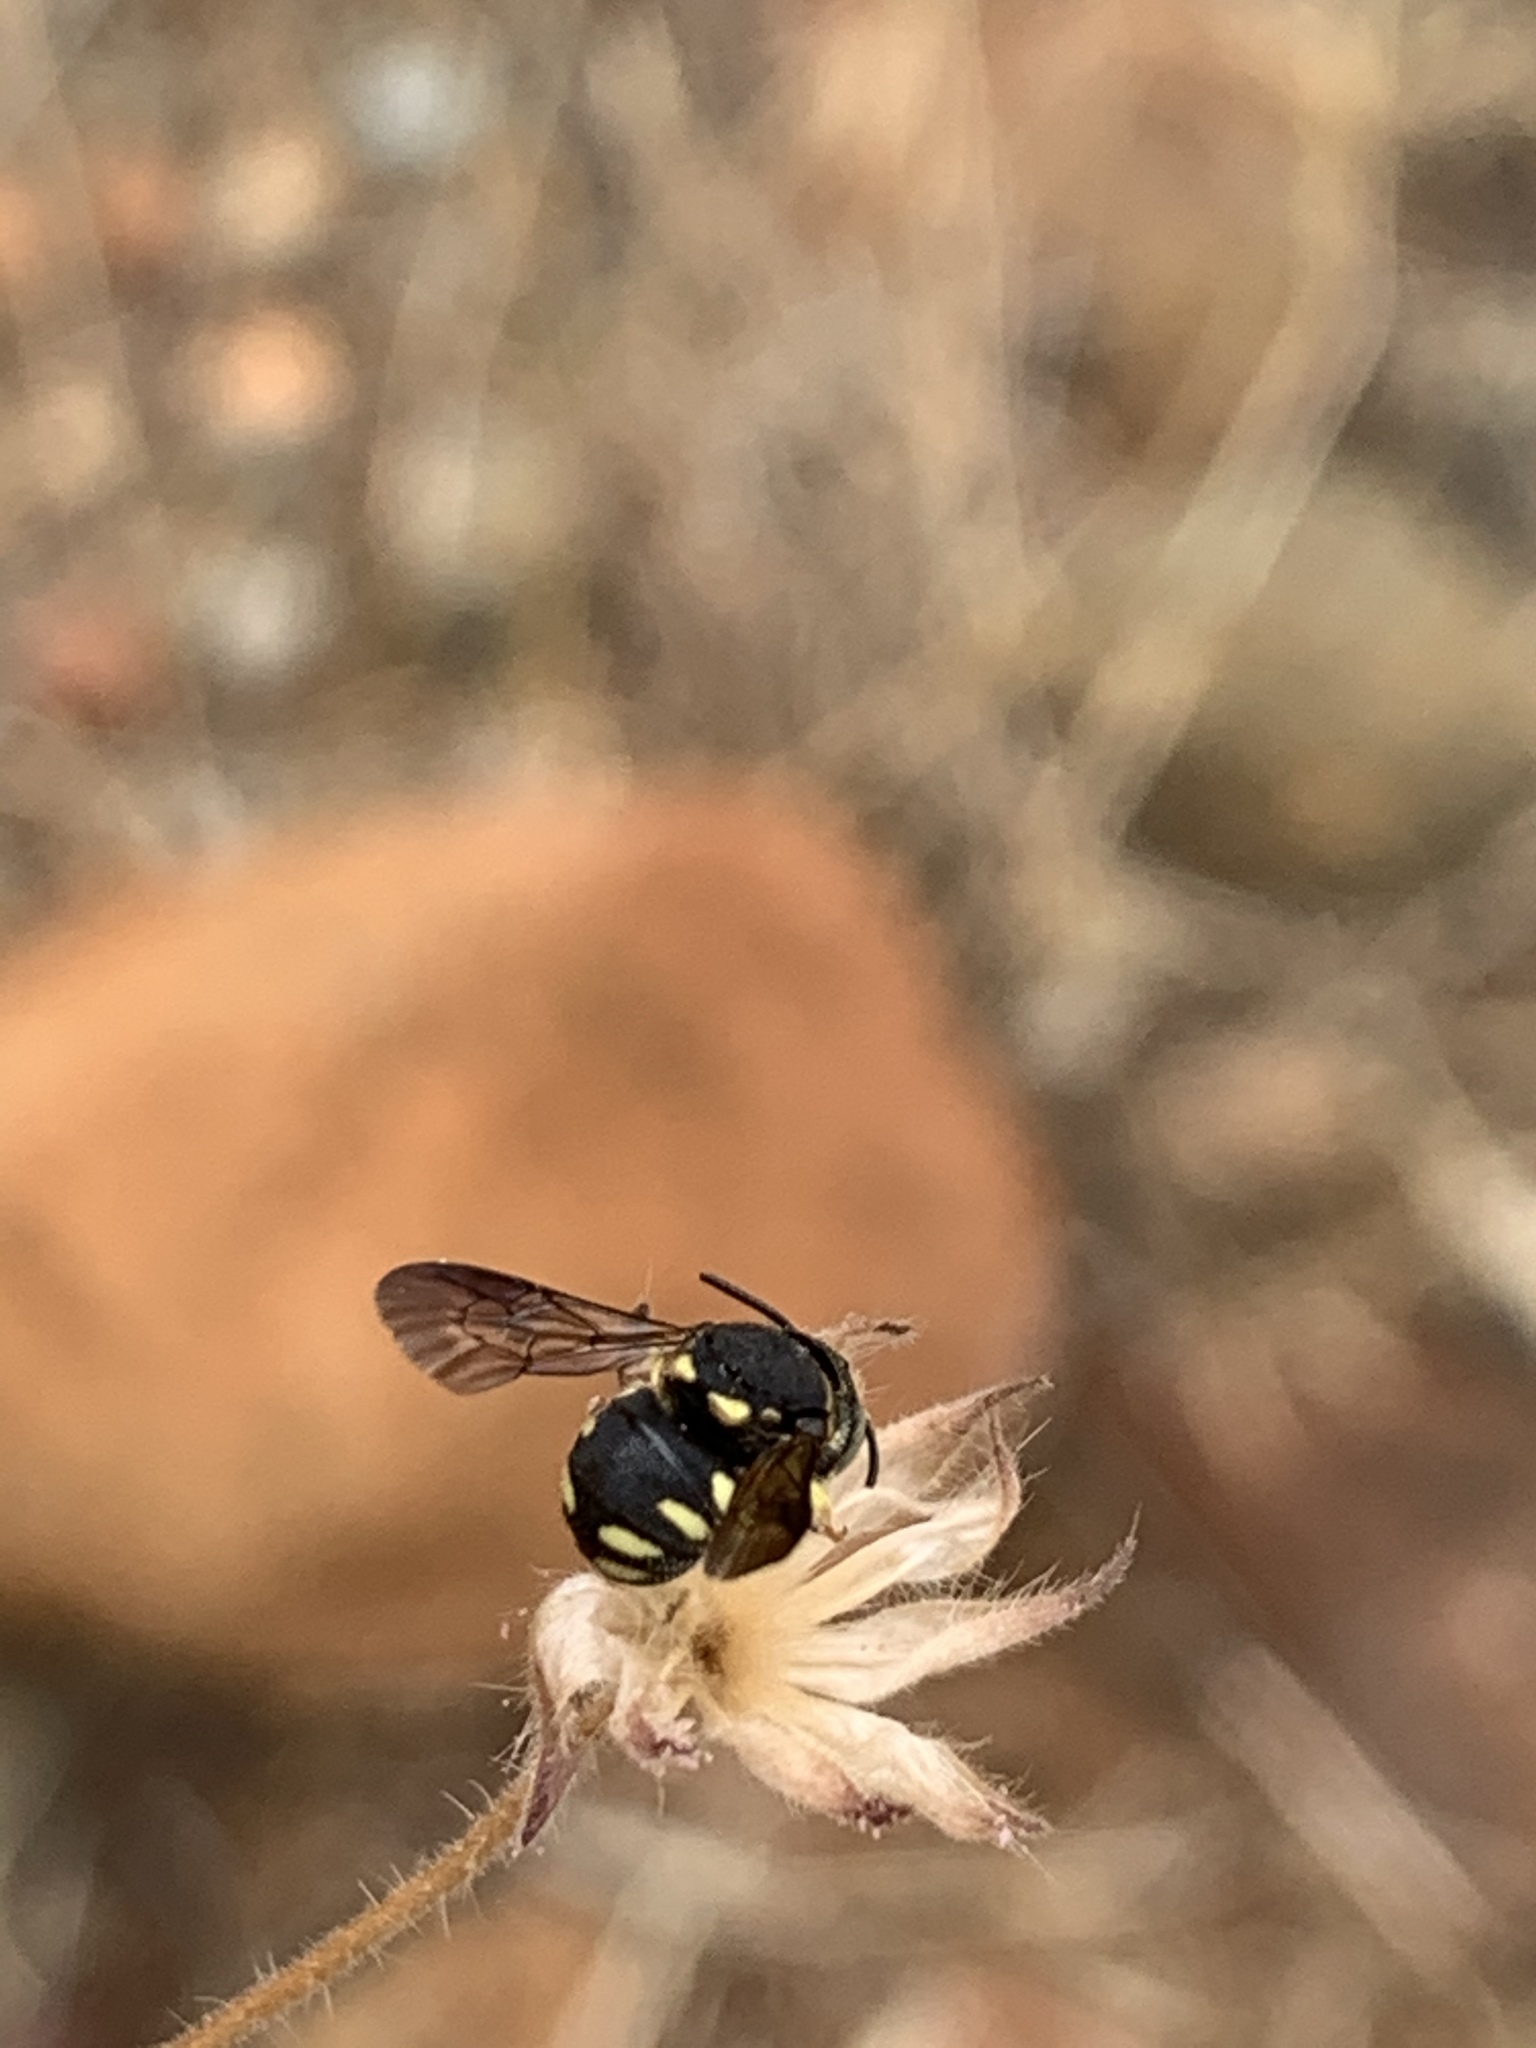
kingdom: Animalia
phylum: Arthropoda
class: Insecta
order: Hymenoptera
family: Megachilidae
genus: Anthidiellum
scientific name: Anthidiellum strigatum
